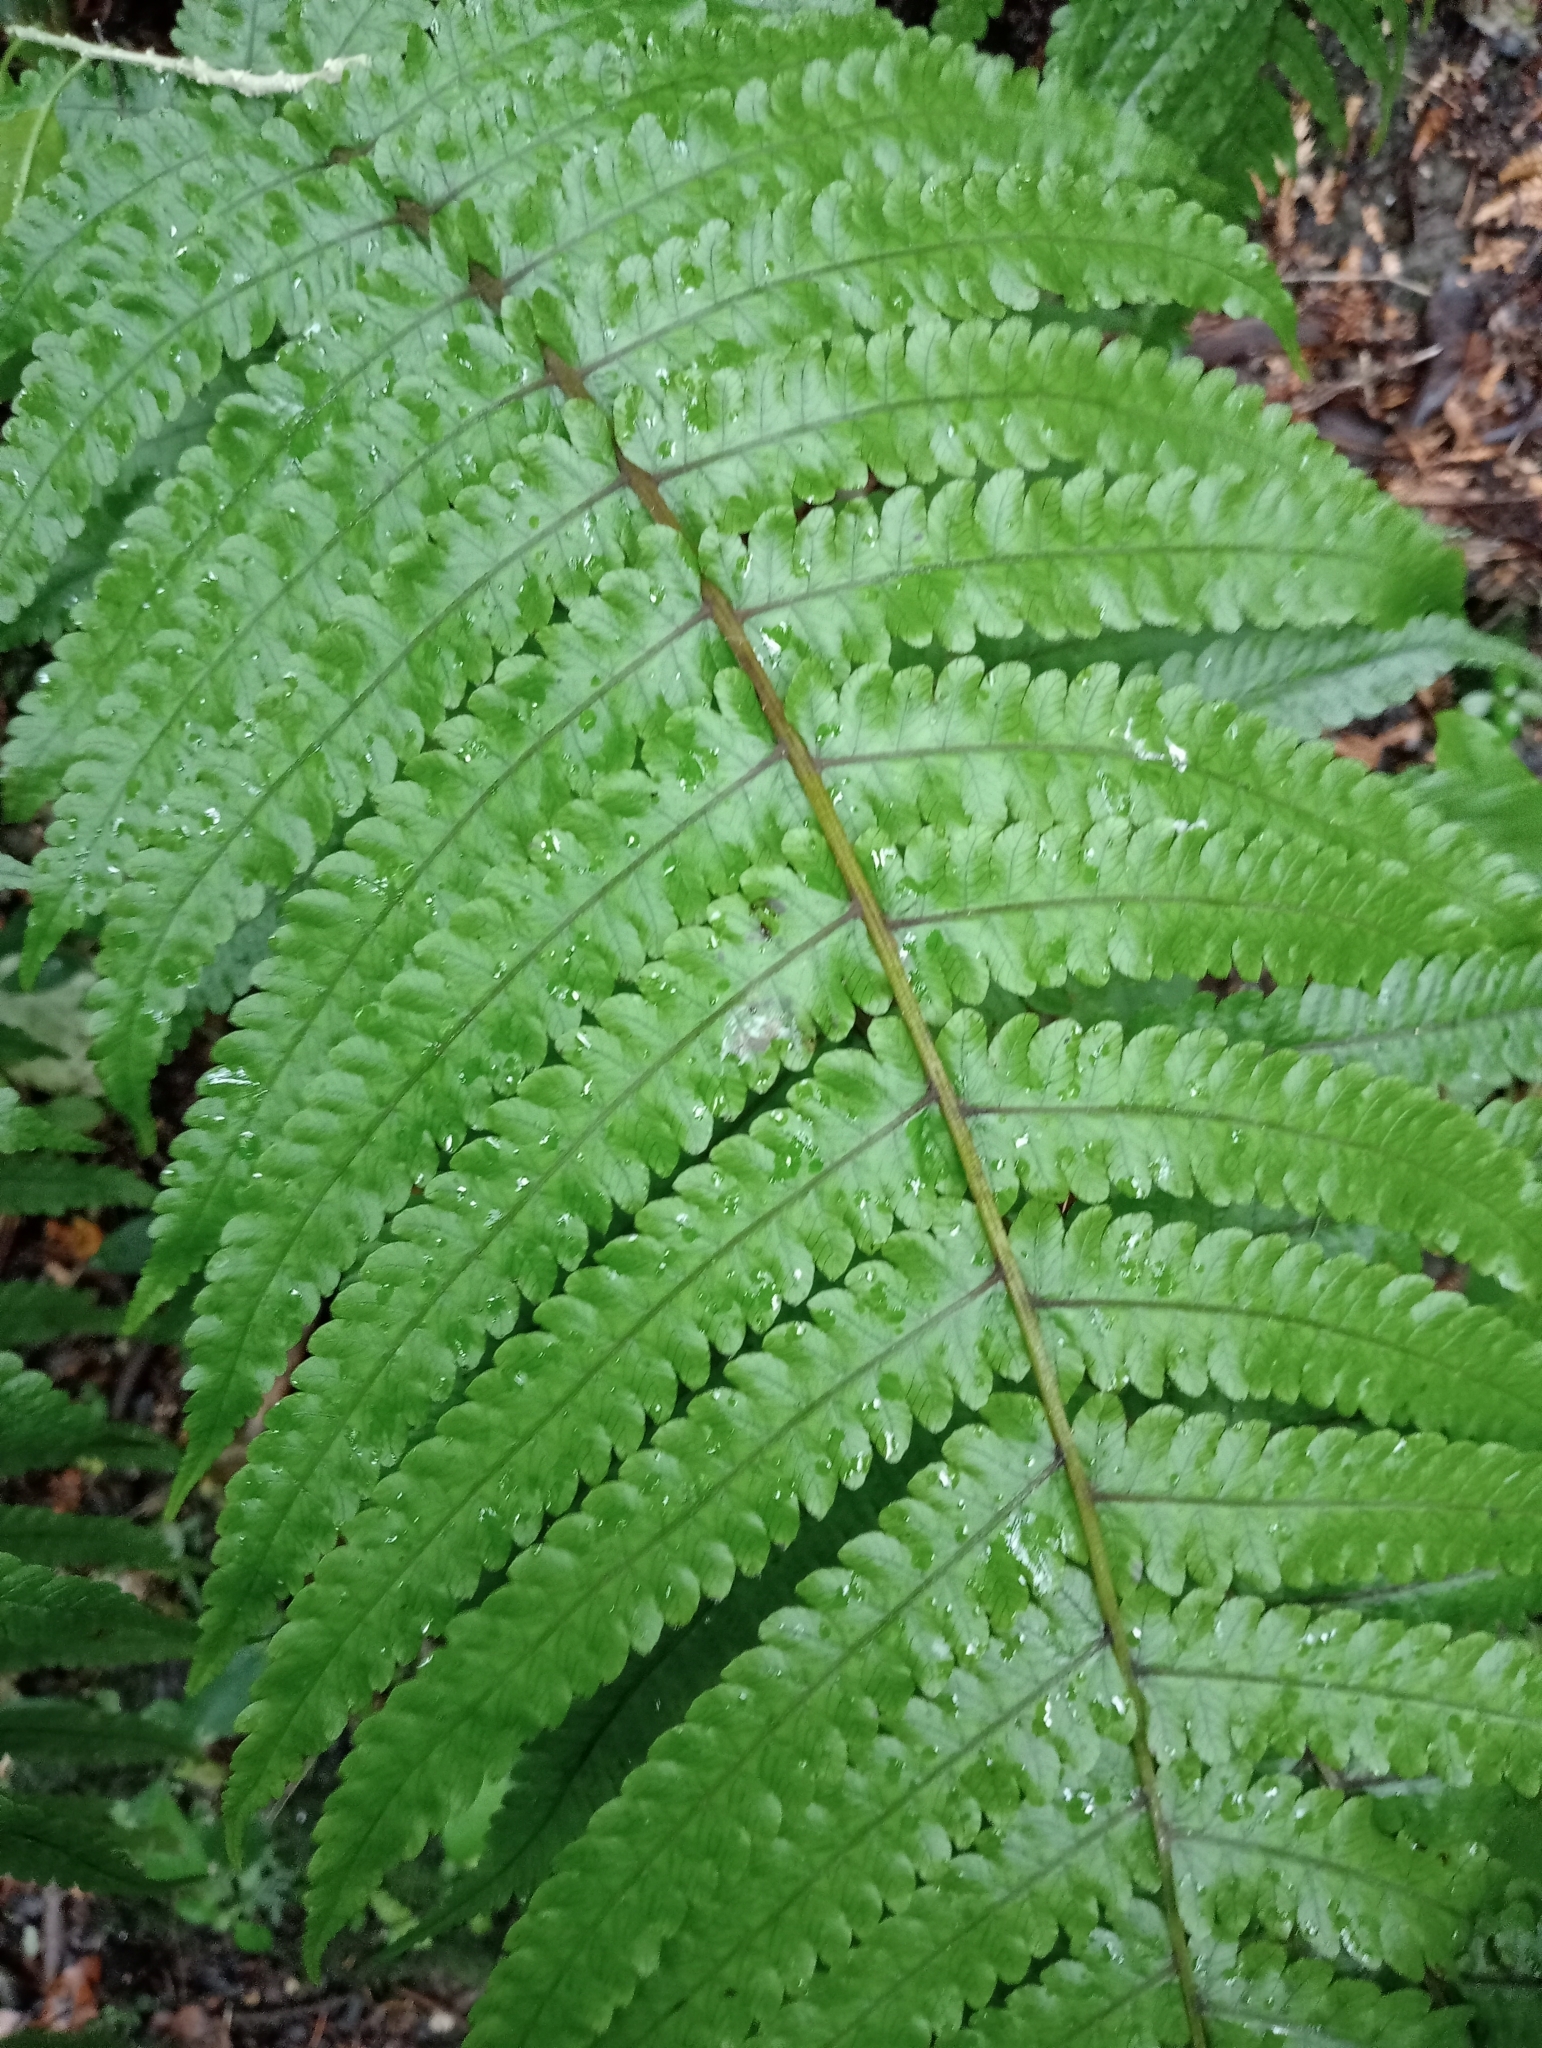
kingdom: Plantae
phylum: Tracheophyta
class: Polypodiopsida
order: Polypodiales
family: Thelypteridaceae
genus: Pakau
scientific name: Pakau pennigera
